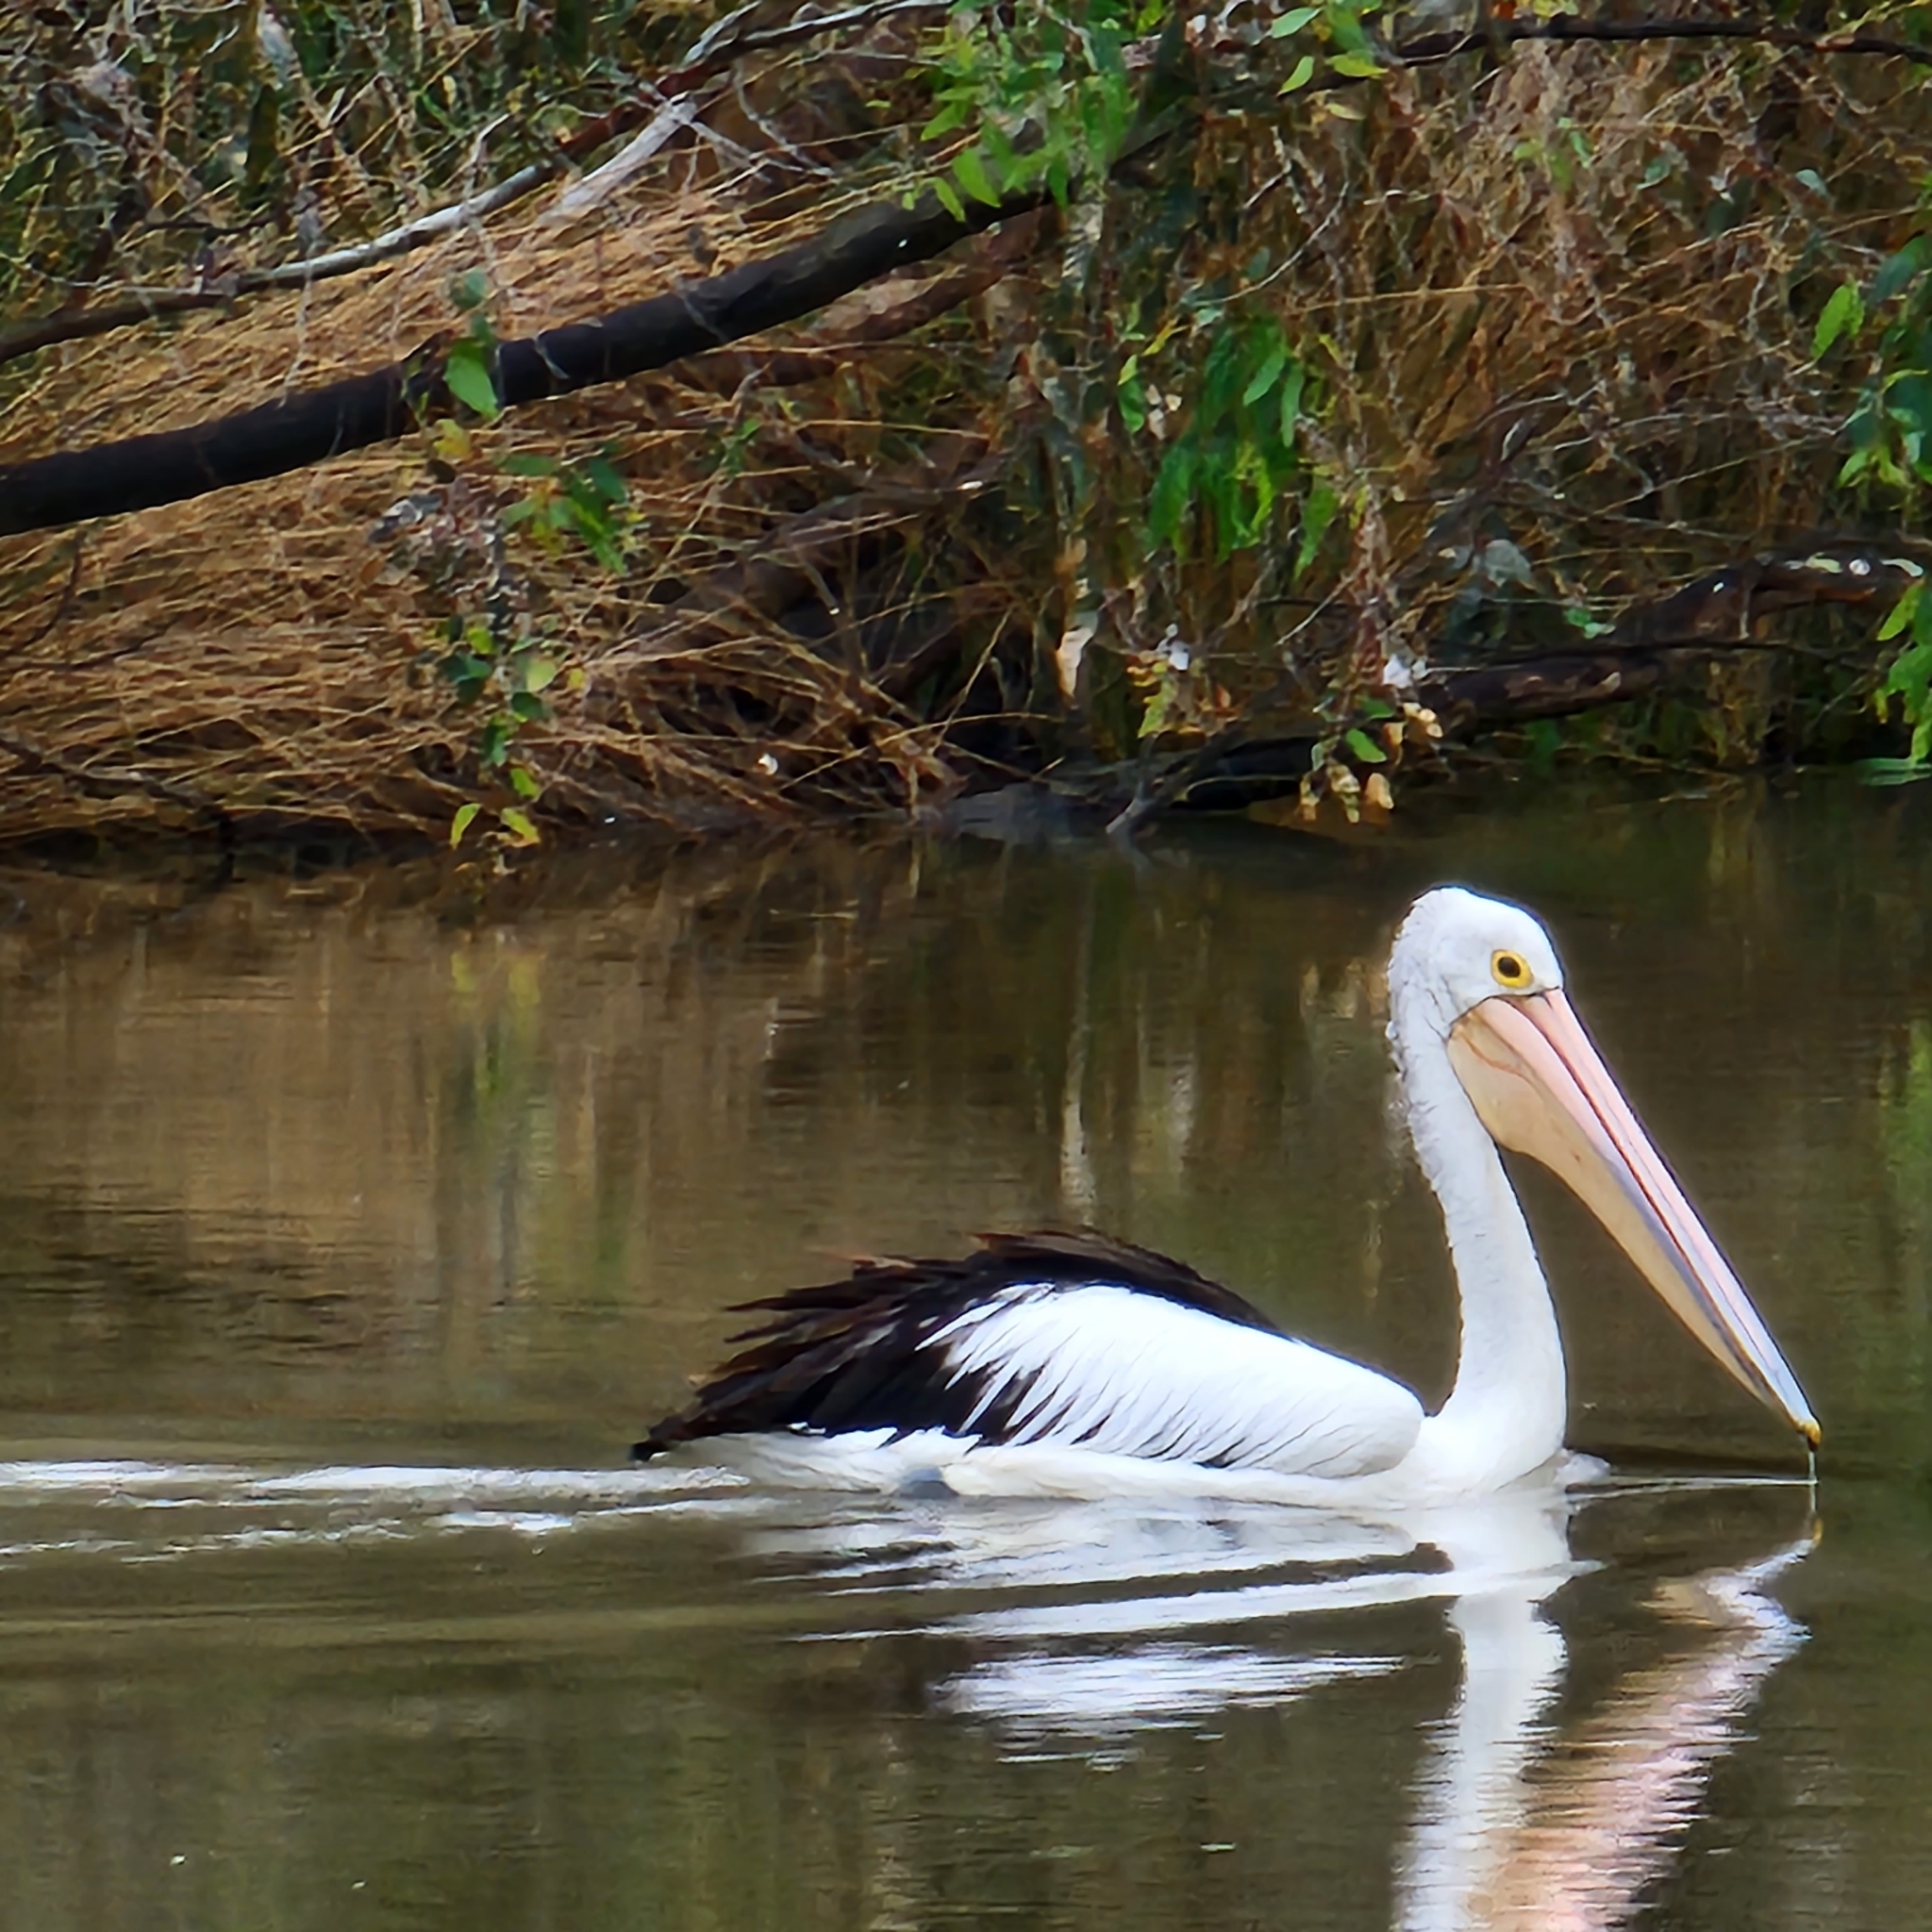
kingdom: Animalia
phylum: Chordata
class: Aves
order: Pelecaniformes
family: Pelecanidae
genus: Pelecanus
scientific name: Pelecanus conspicillatus
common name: Australian pelican
